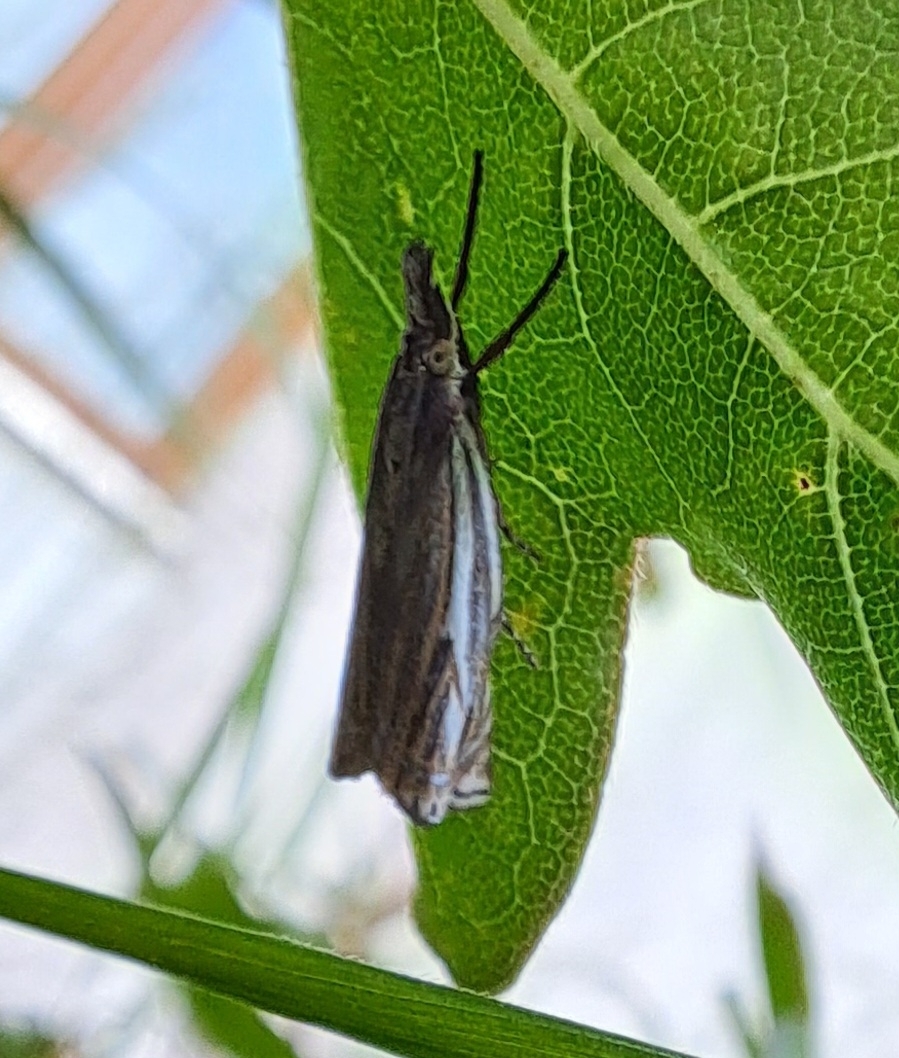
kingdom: Animalia
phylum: Arthropoda
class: Insecta
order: Lepidoptera
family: Crambidae
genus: Crambus
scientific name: Crambus nemorella
